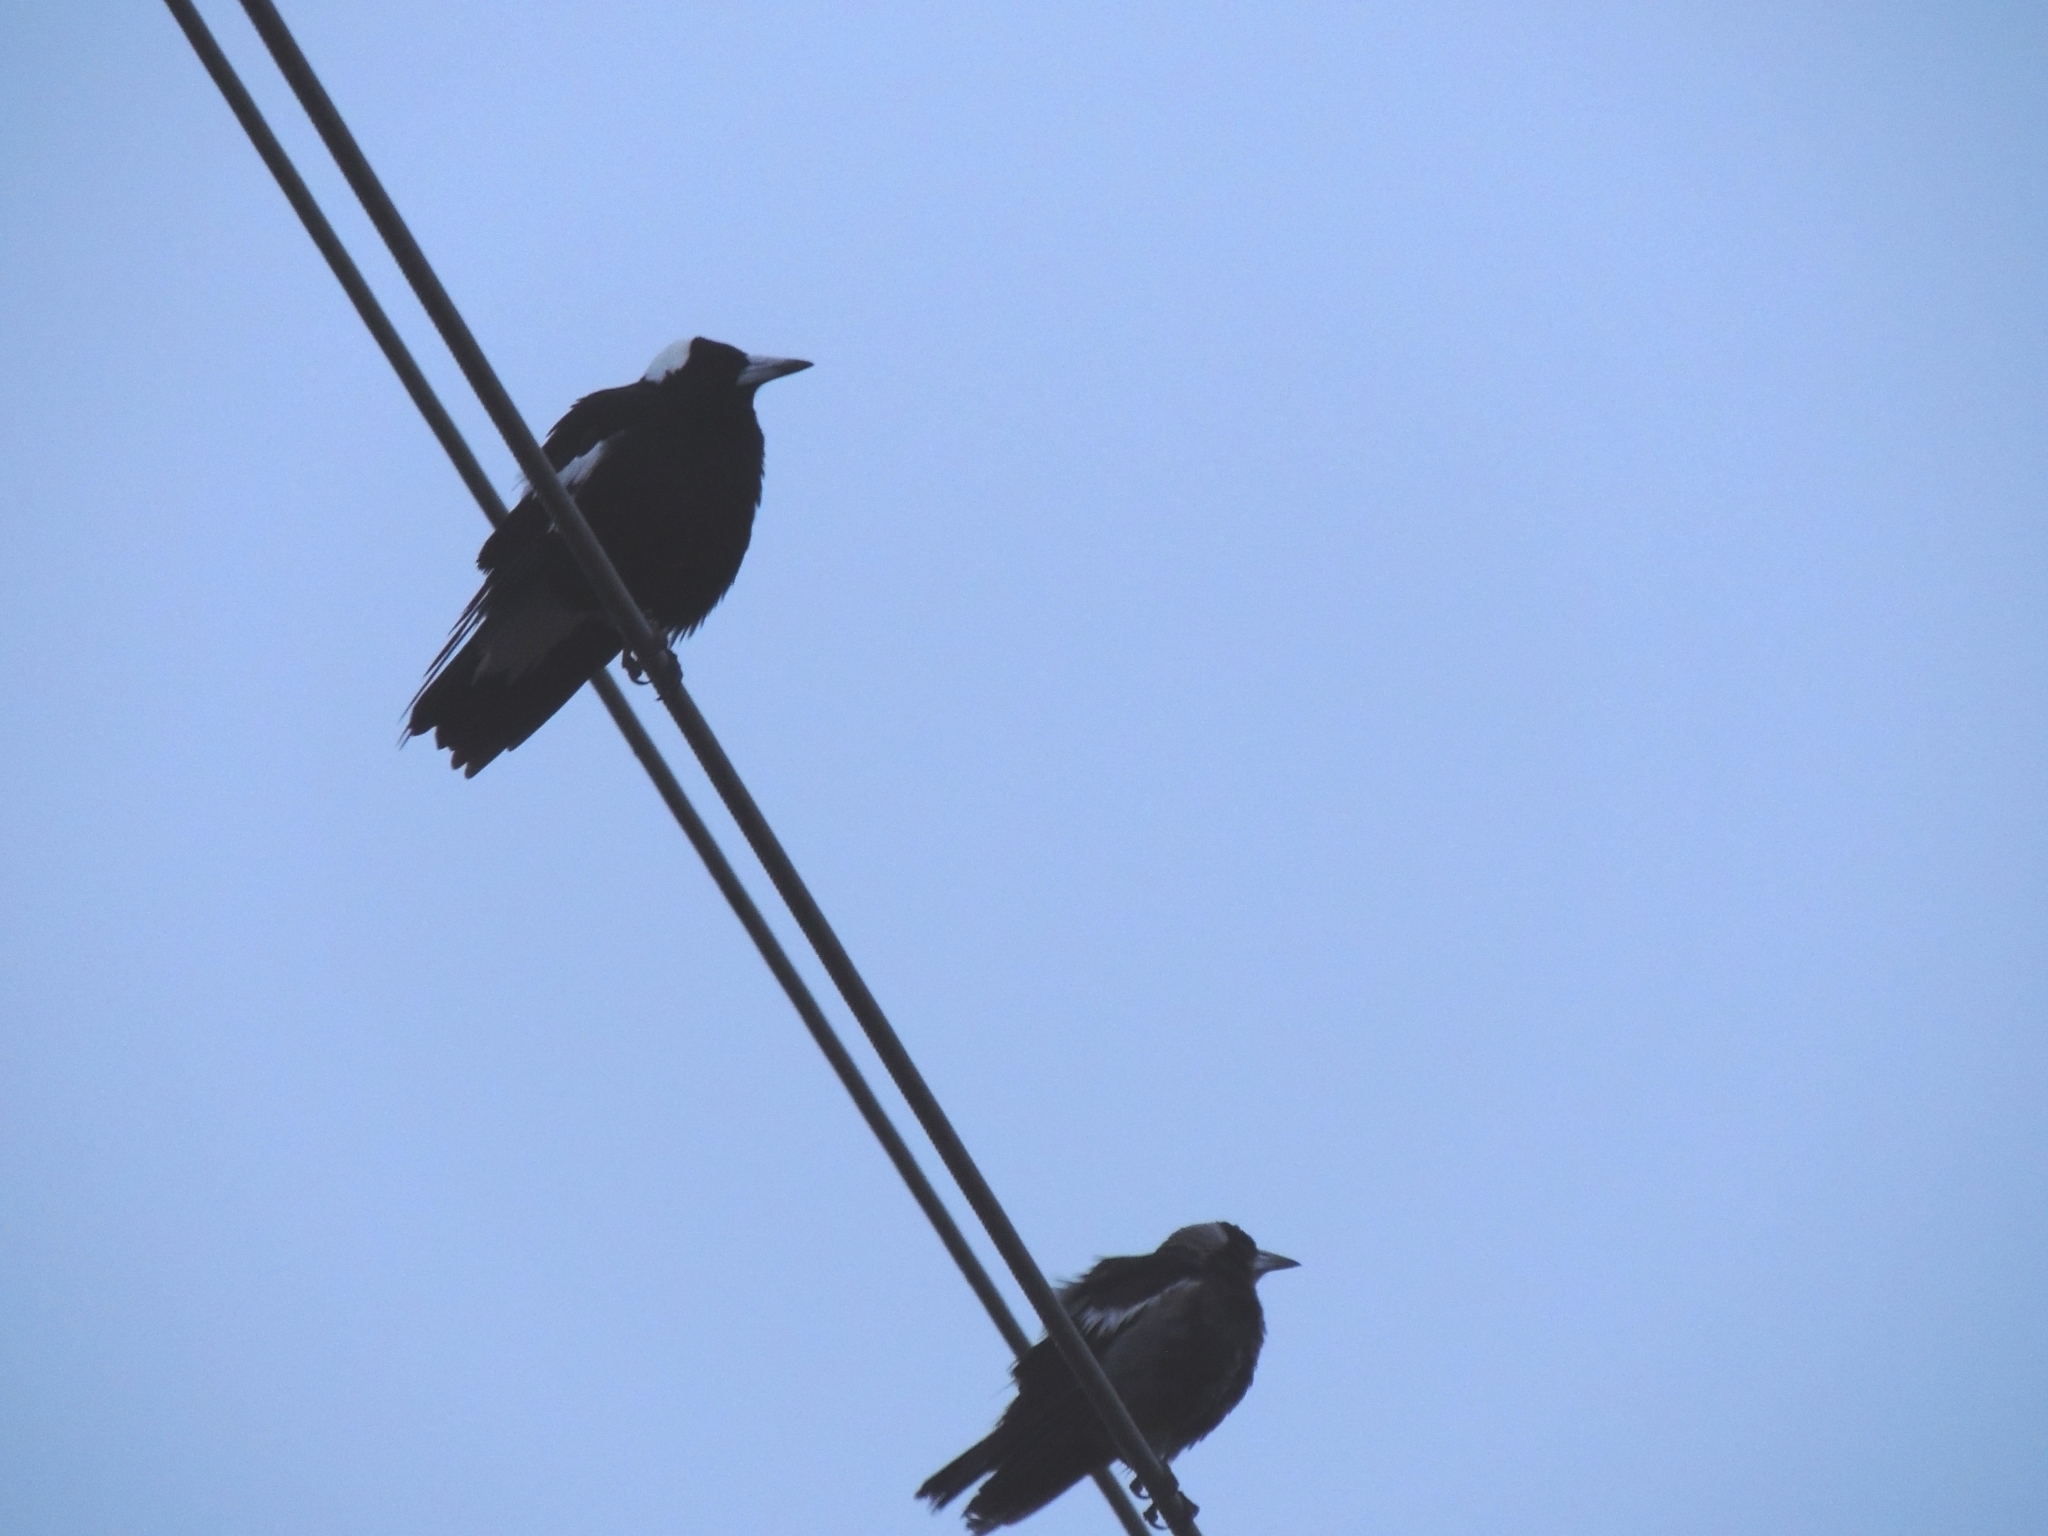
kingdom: Animalia
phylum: Chordata
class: Aves
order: Passeriformes
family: Cracticidae
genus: Gymnorhina
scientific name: Gymnorhina tibicen
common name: Australian magpie
